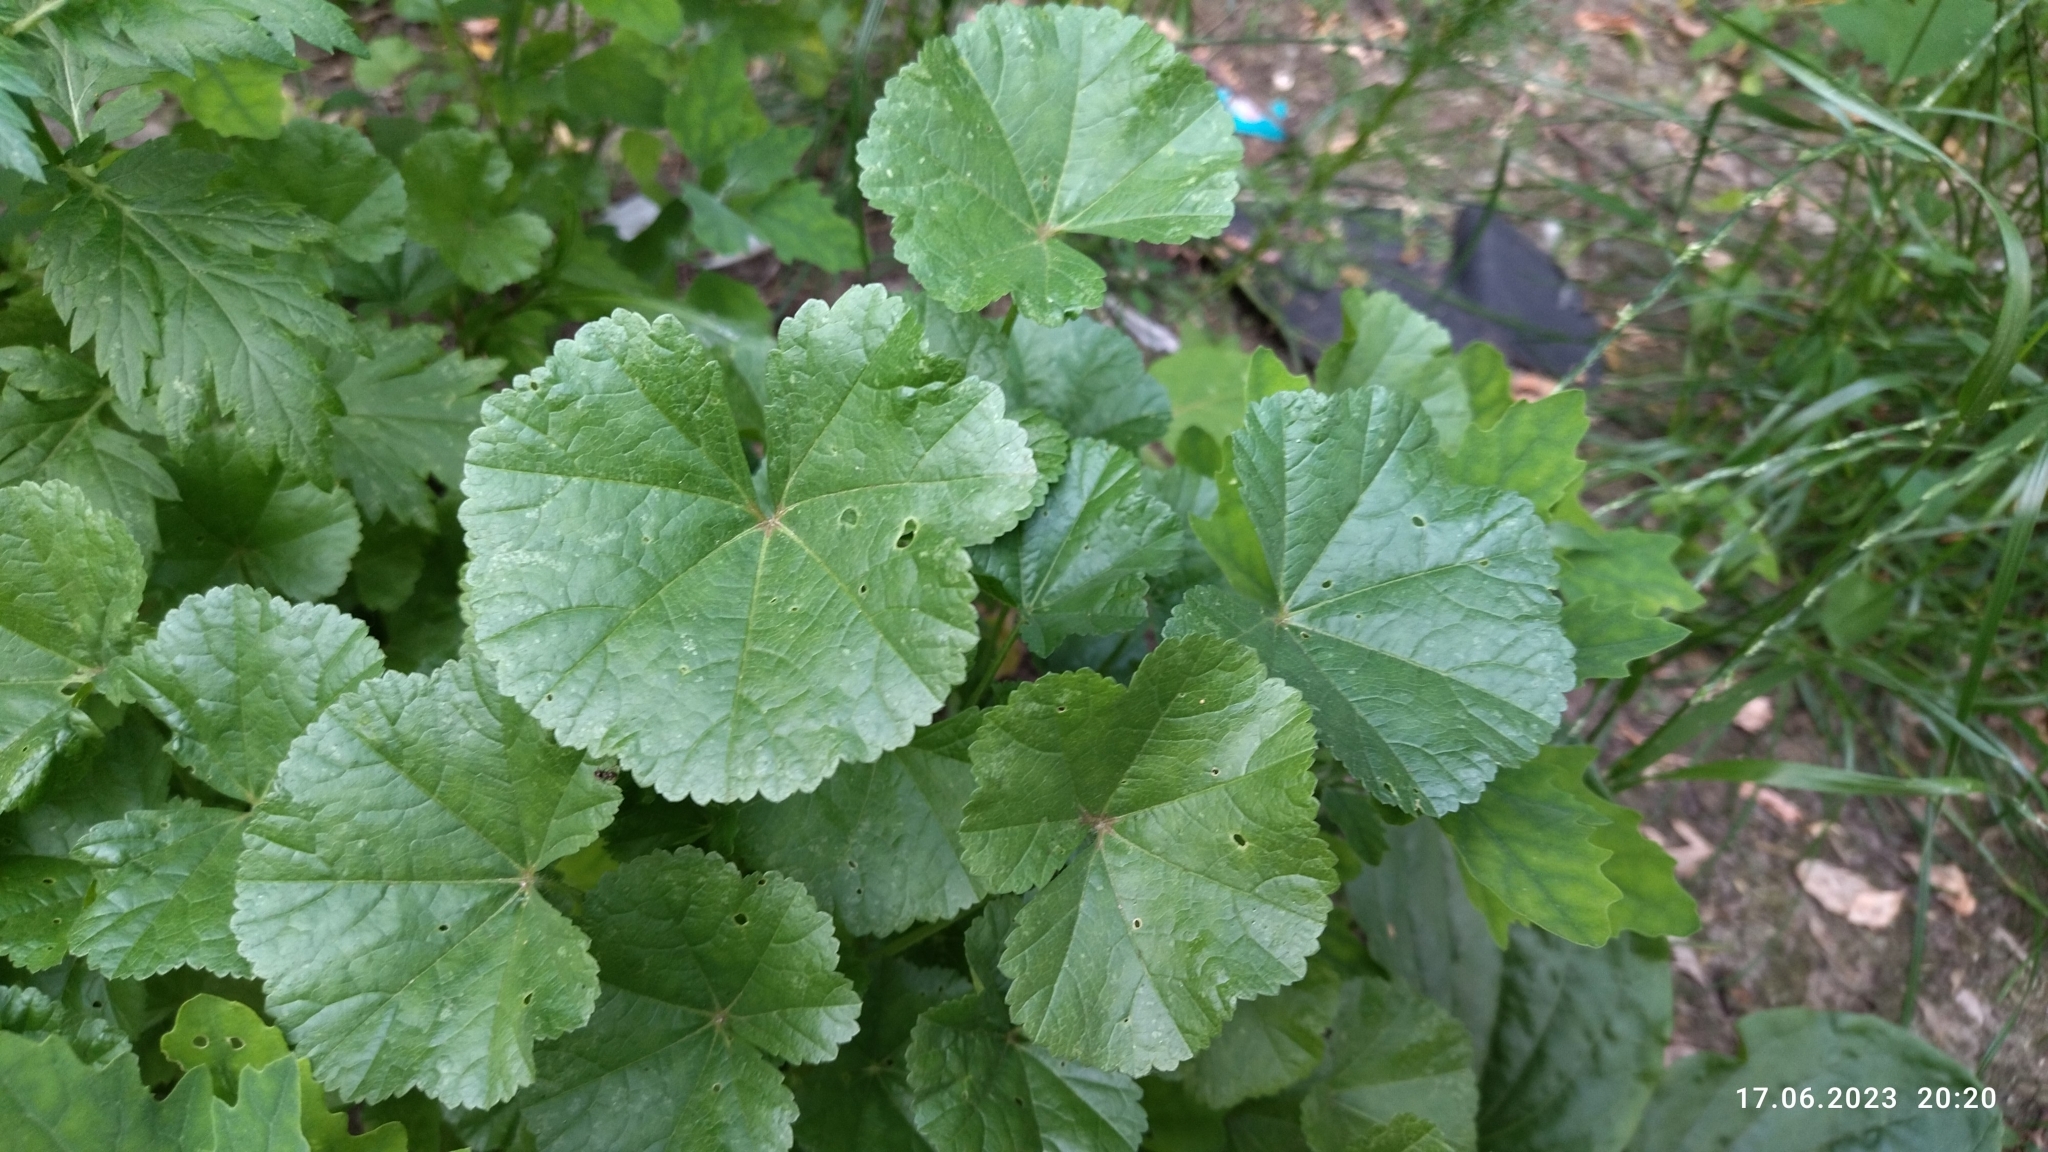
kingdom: Plantae
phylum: Tracheophyta
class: Magnoliopsida
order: Malvales
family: Malvaceae
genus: Malva
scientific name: Malva pusilla
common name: Small mallow
